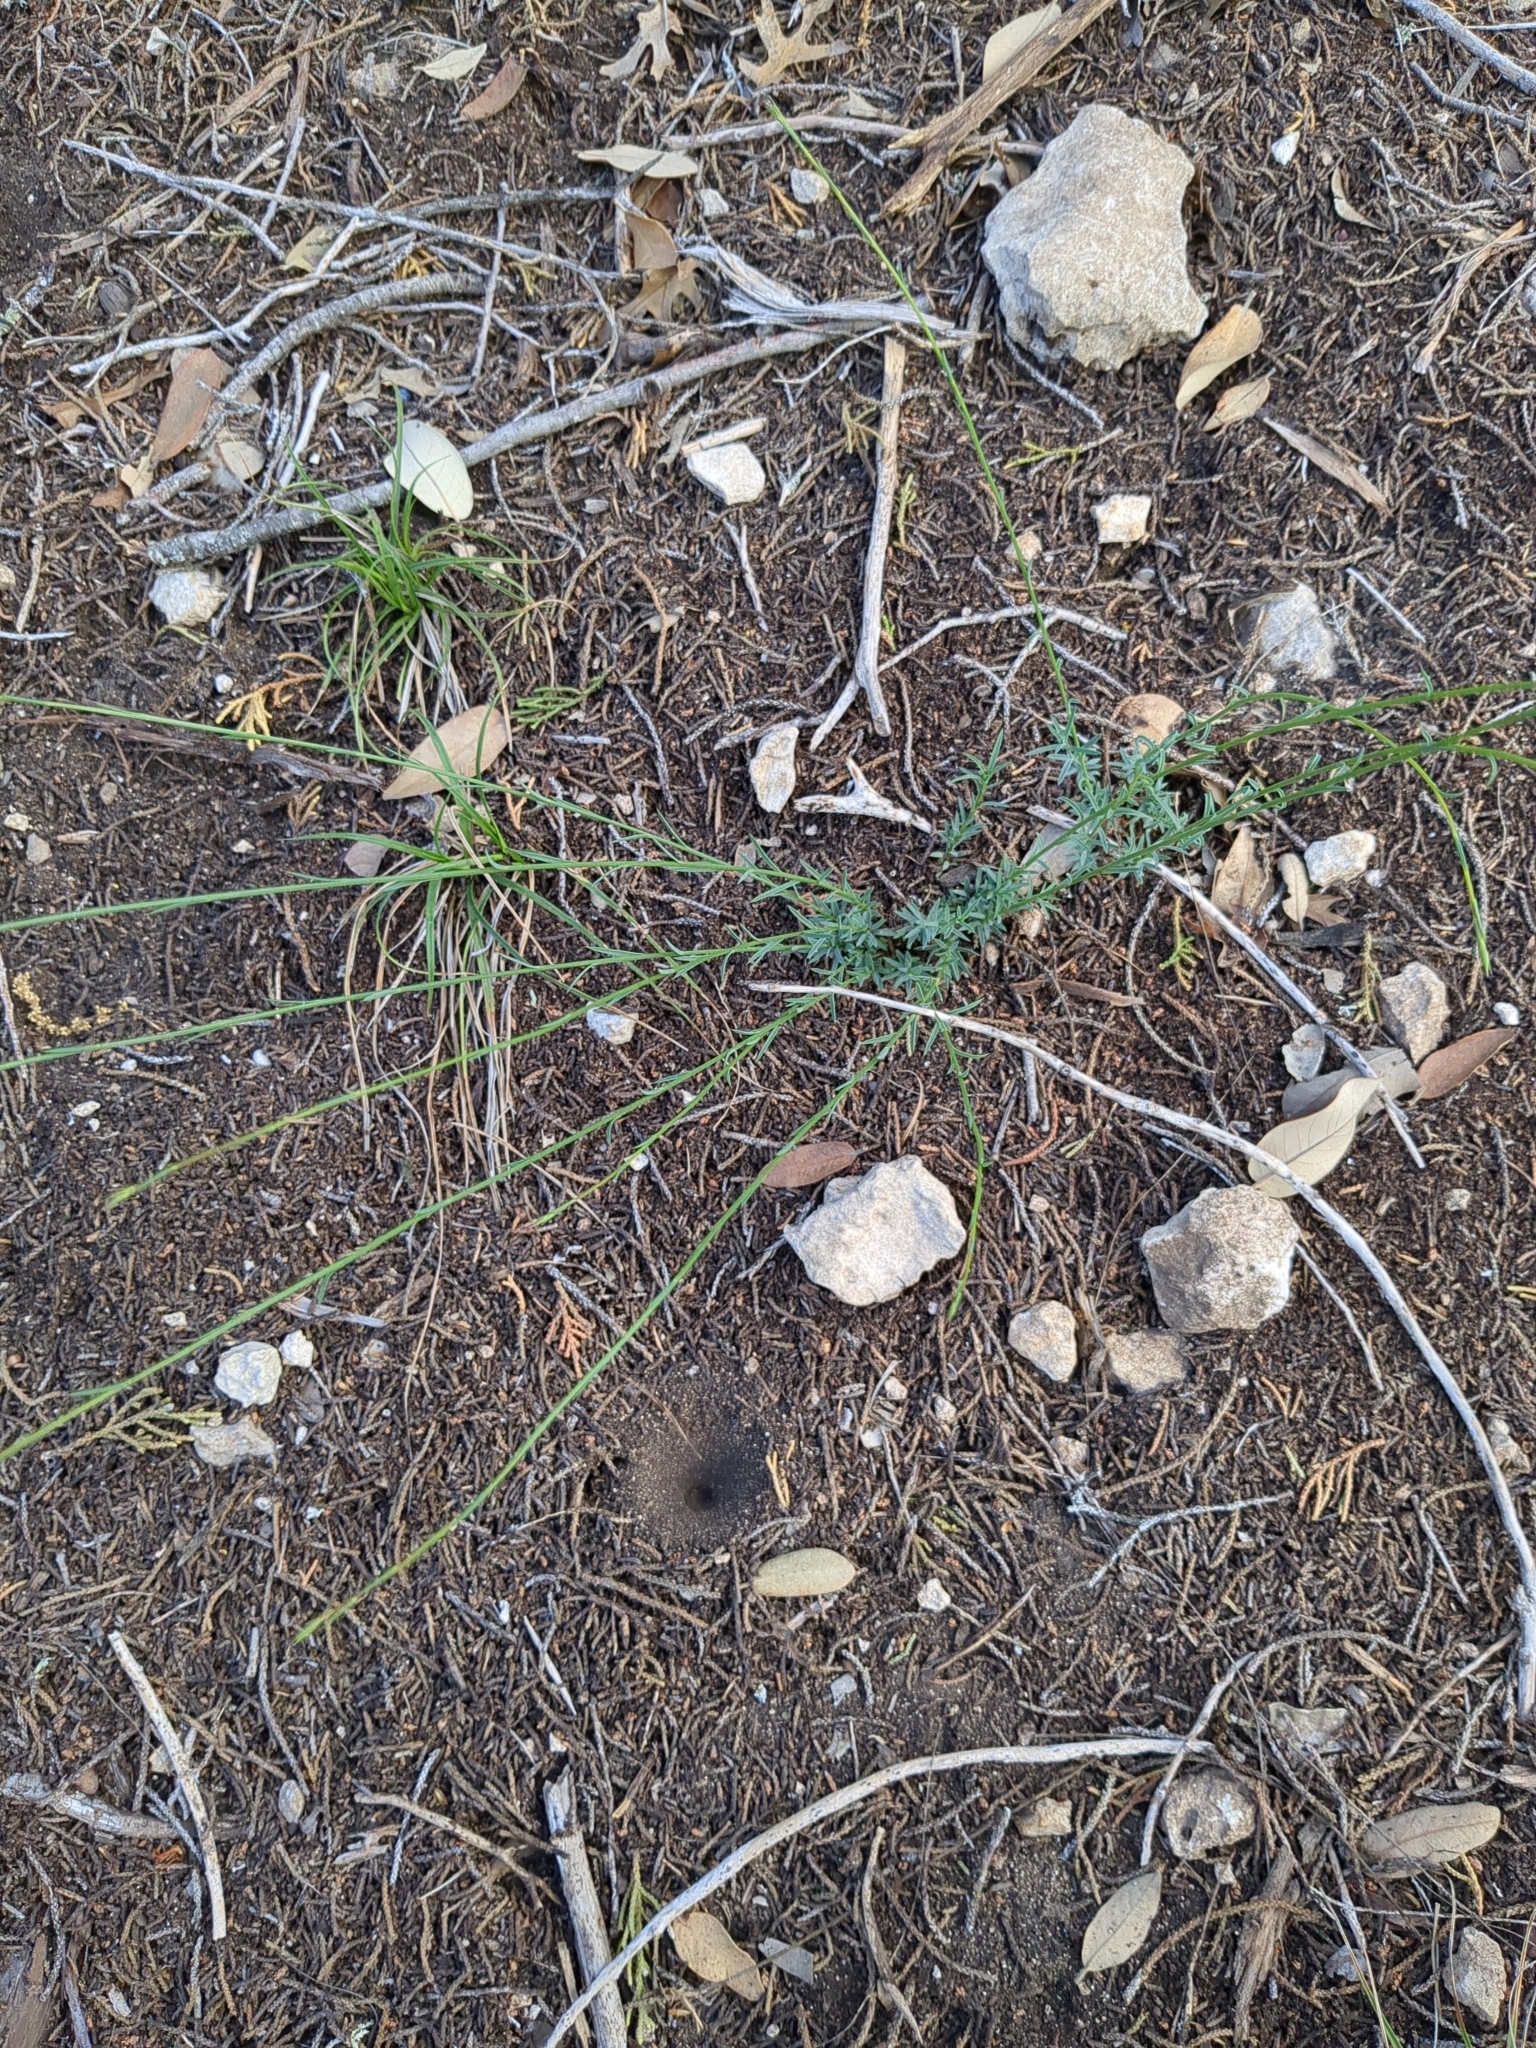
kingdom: Plantae
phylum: Tracheophyta
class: Magnoliopsida
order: Malpighiales
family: Linaceae
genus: Linum
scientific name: Linum rupestre
